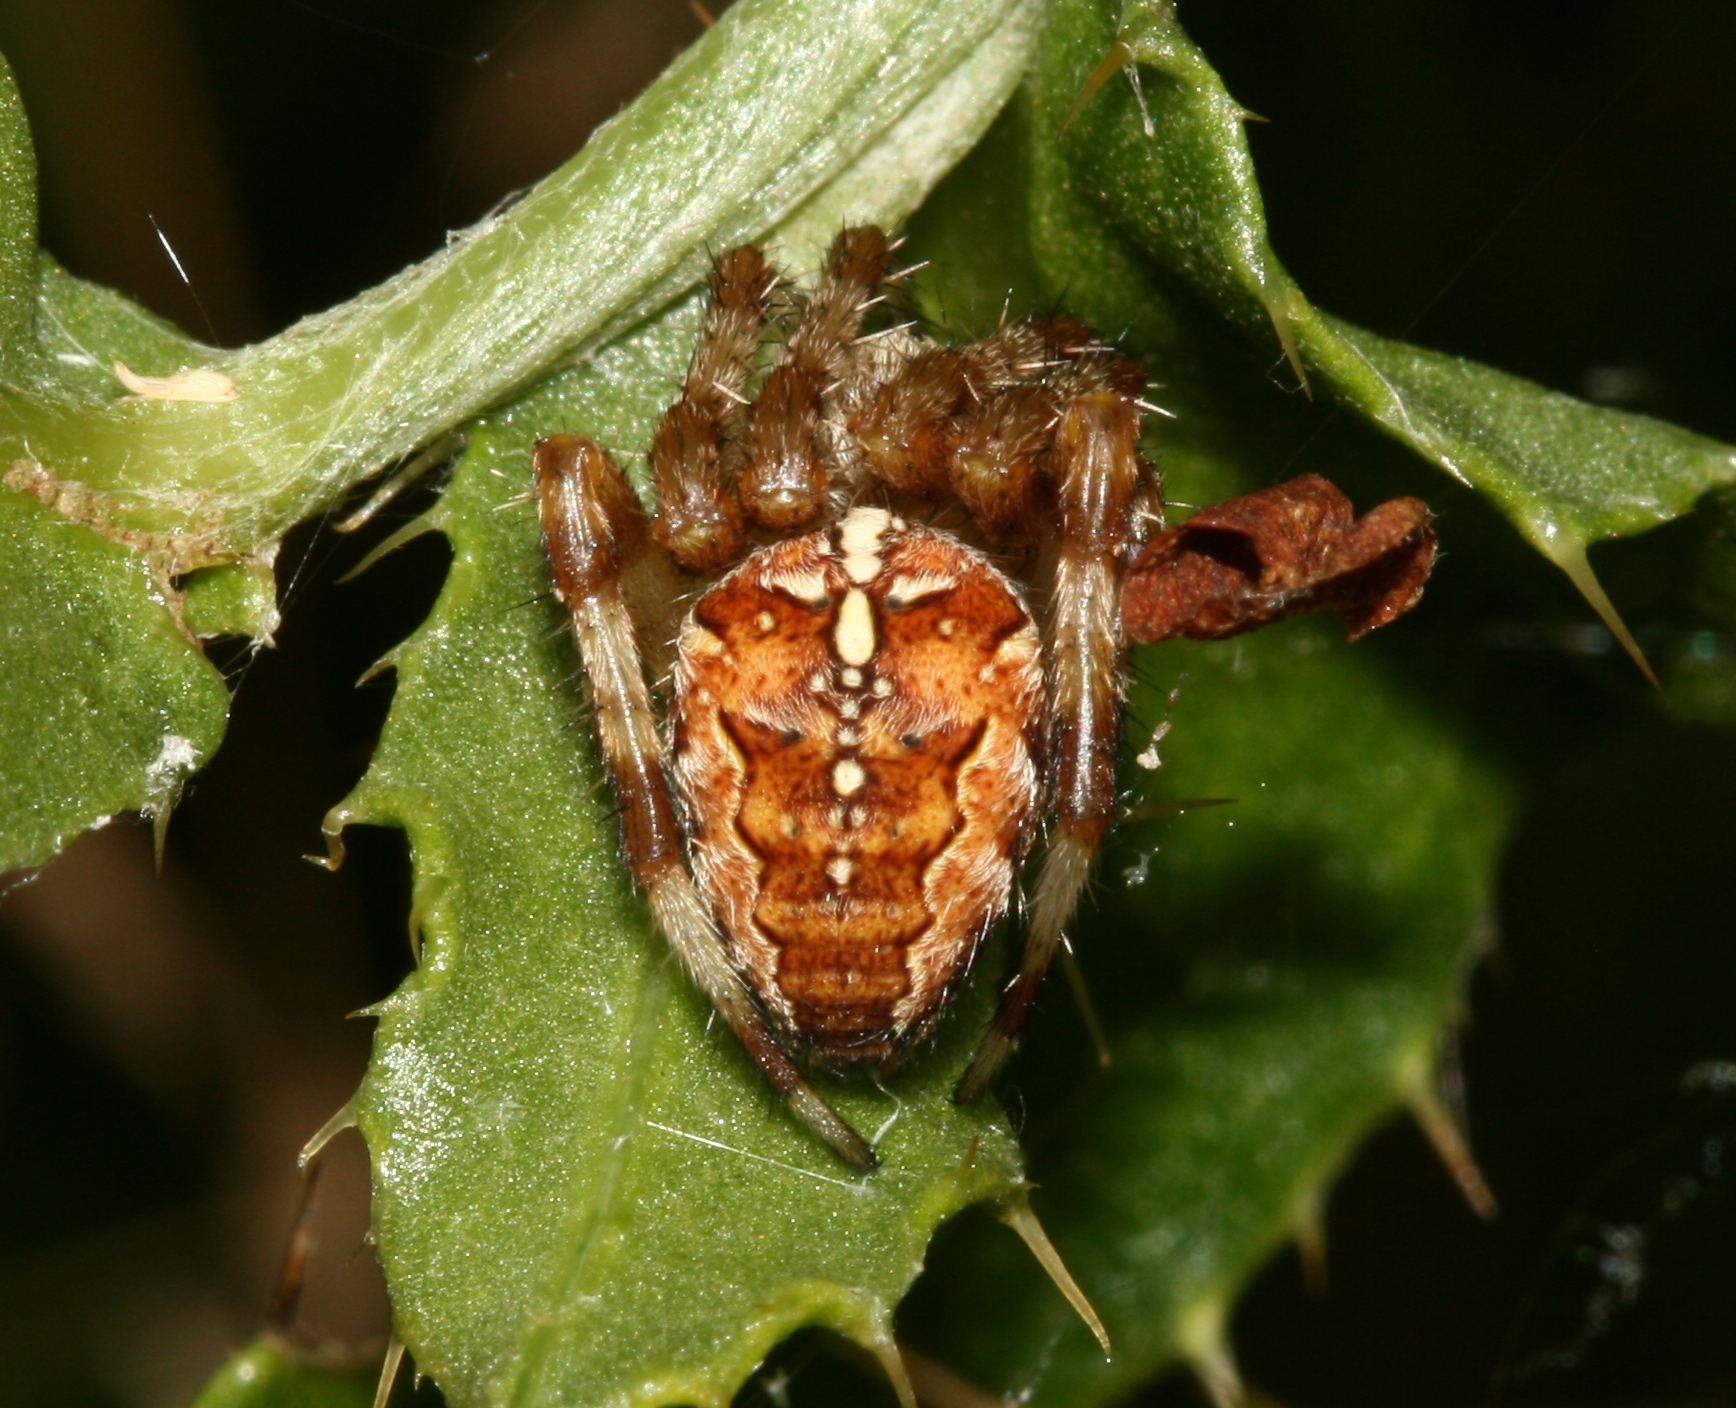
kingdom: Animalia
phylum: Arthropoda
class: Arachnida
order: Araneae
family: Araneidae
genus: Araneus
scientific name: Araneus diadematus
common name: Cross orbweaver
